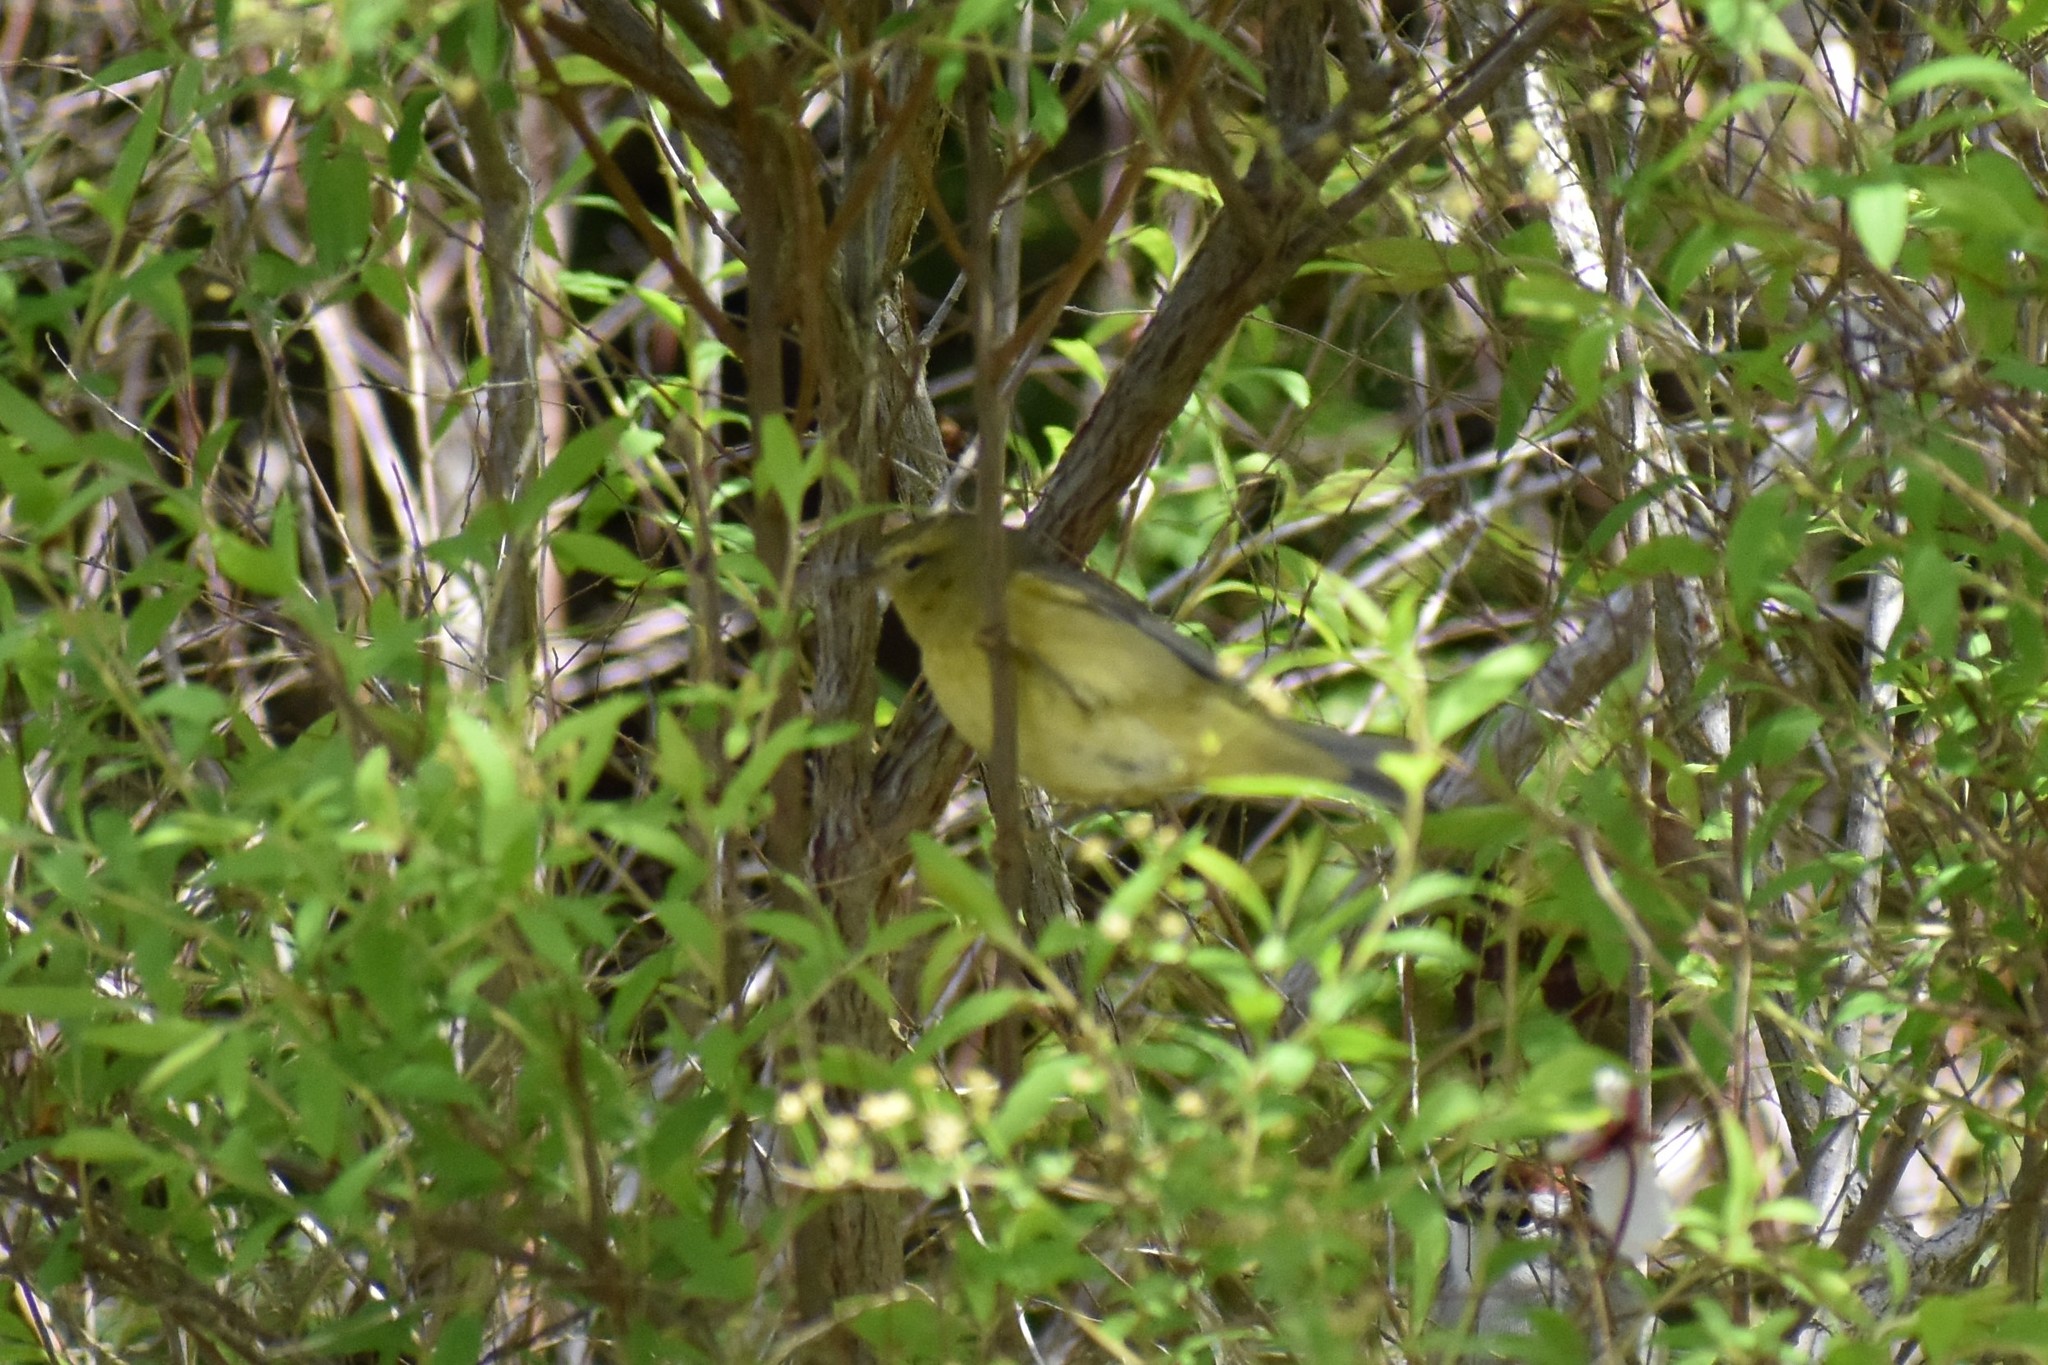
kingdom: Animalia
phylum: Chordata
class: Aves
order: Passeriformes
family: Parulidae
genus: Leiothlypis
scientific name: Leiothlypis celata
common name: Orange-crowned warbler
